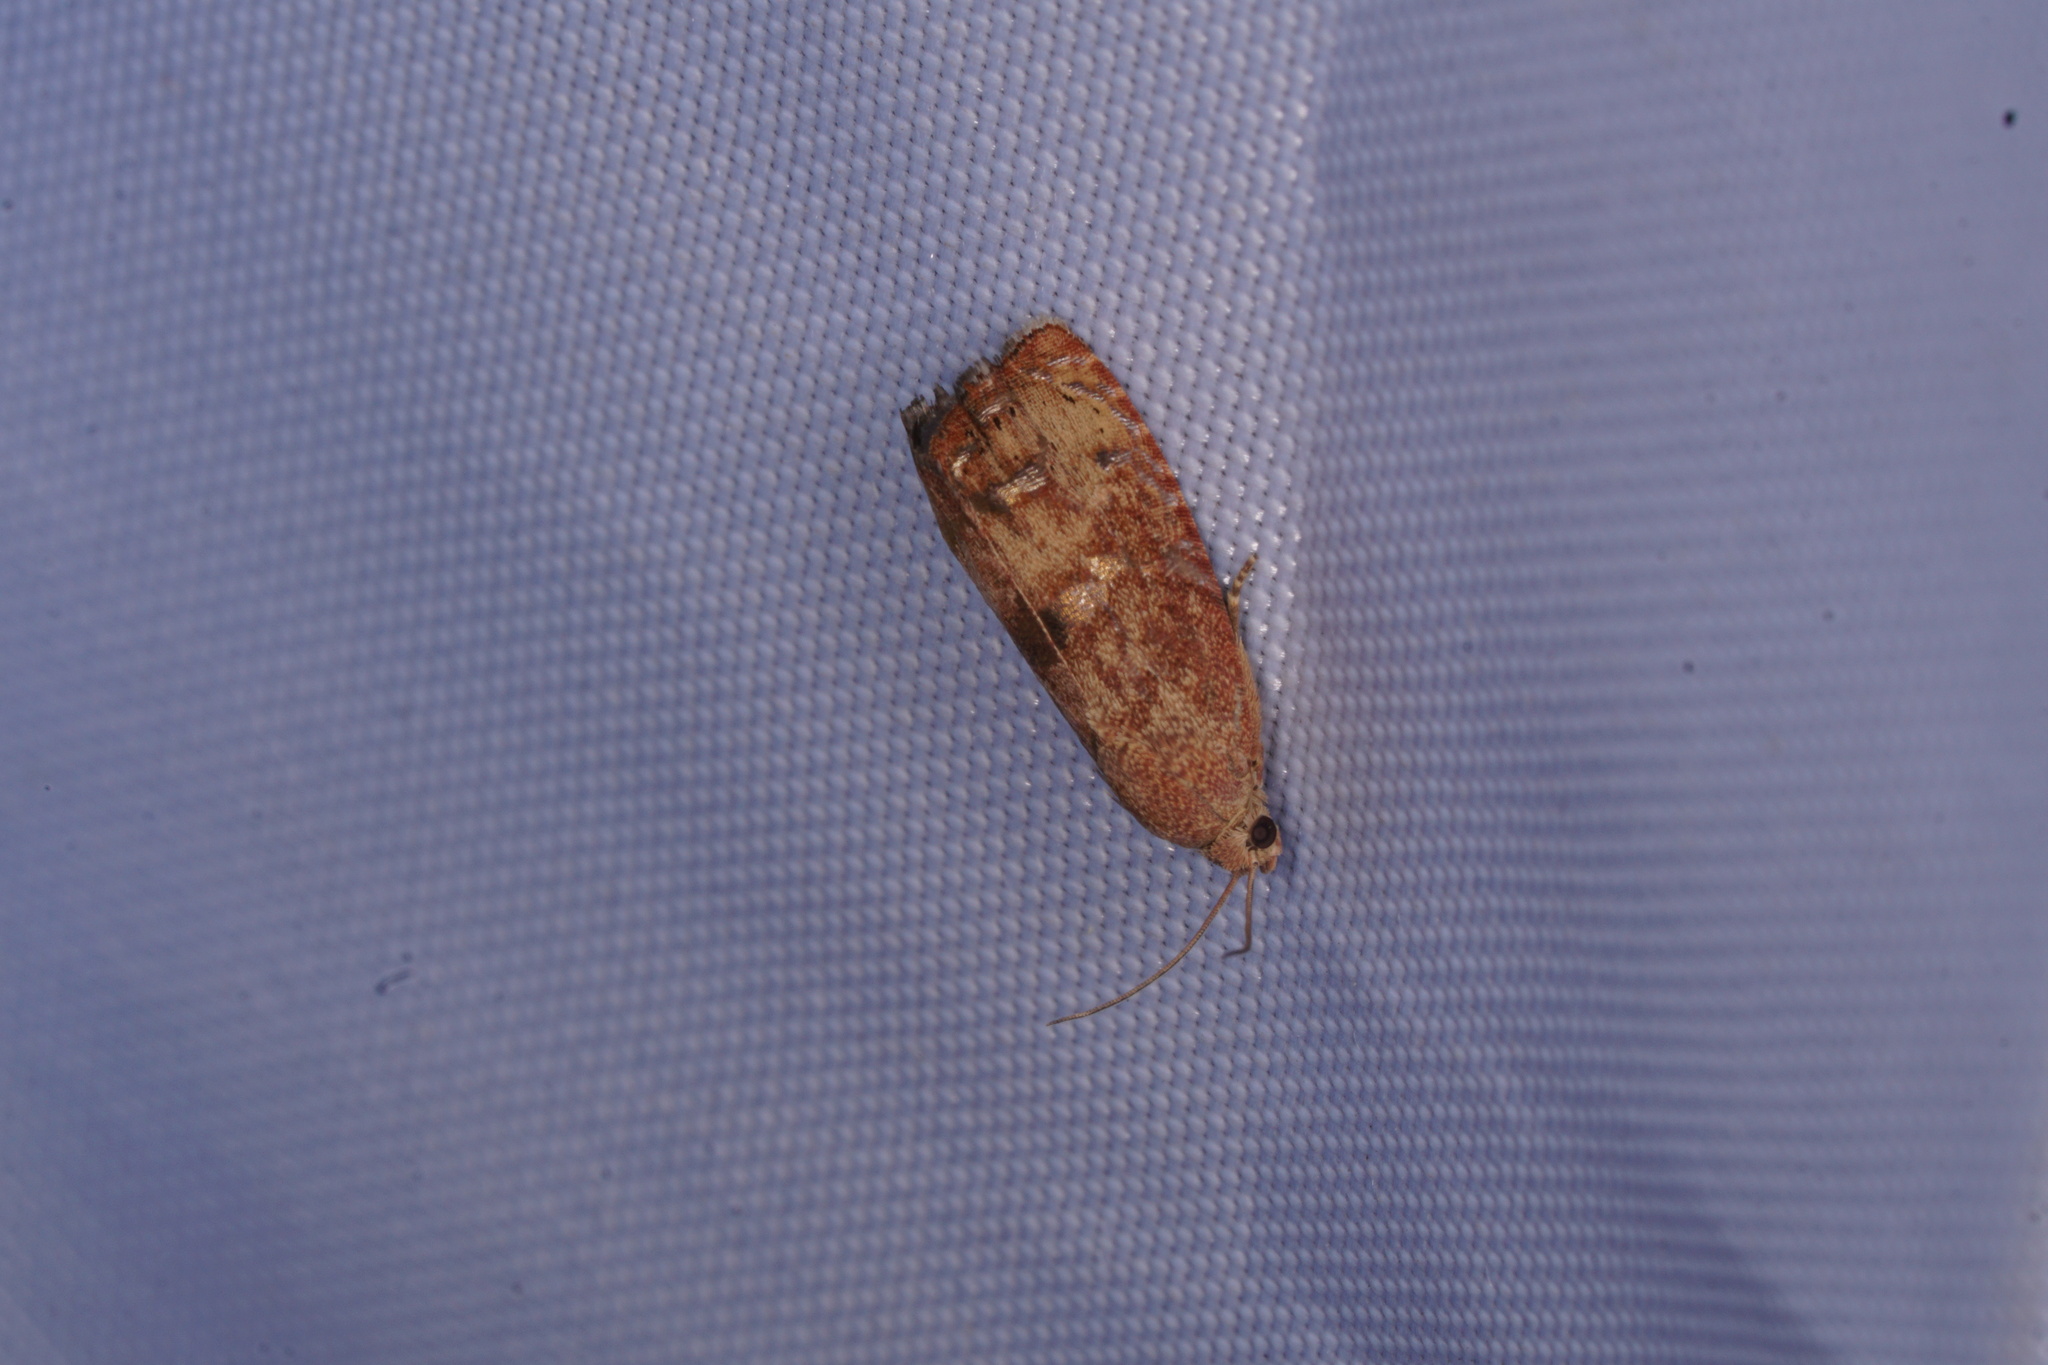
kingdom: Animalia
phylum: Arthropoda
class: Insecta
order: Lepidoptera
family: Tortricidae
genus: Cydia
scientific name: Cydia latiferreana
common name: Filbertworm moth
